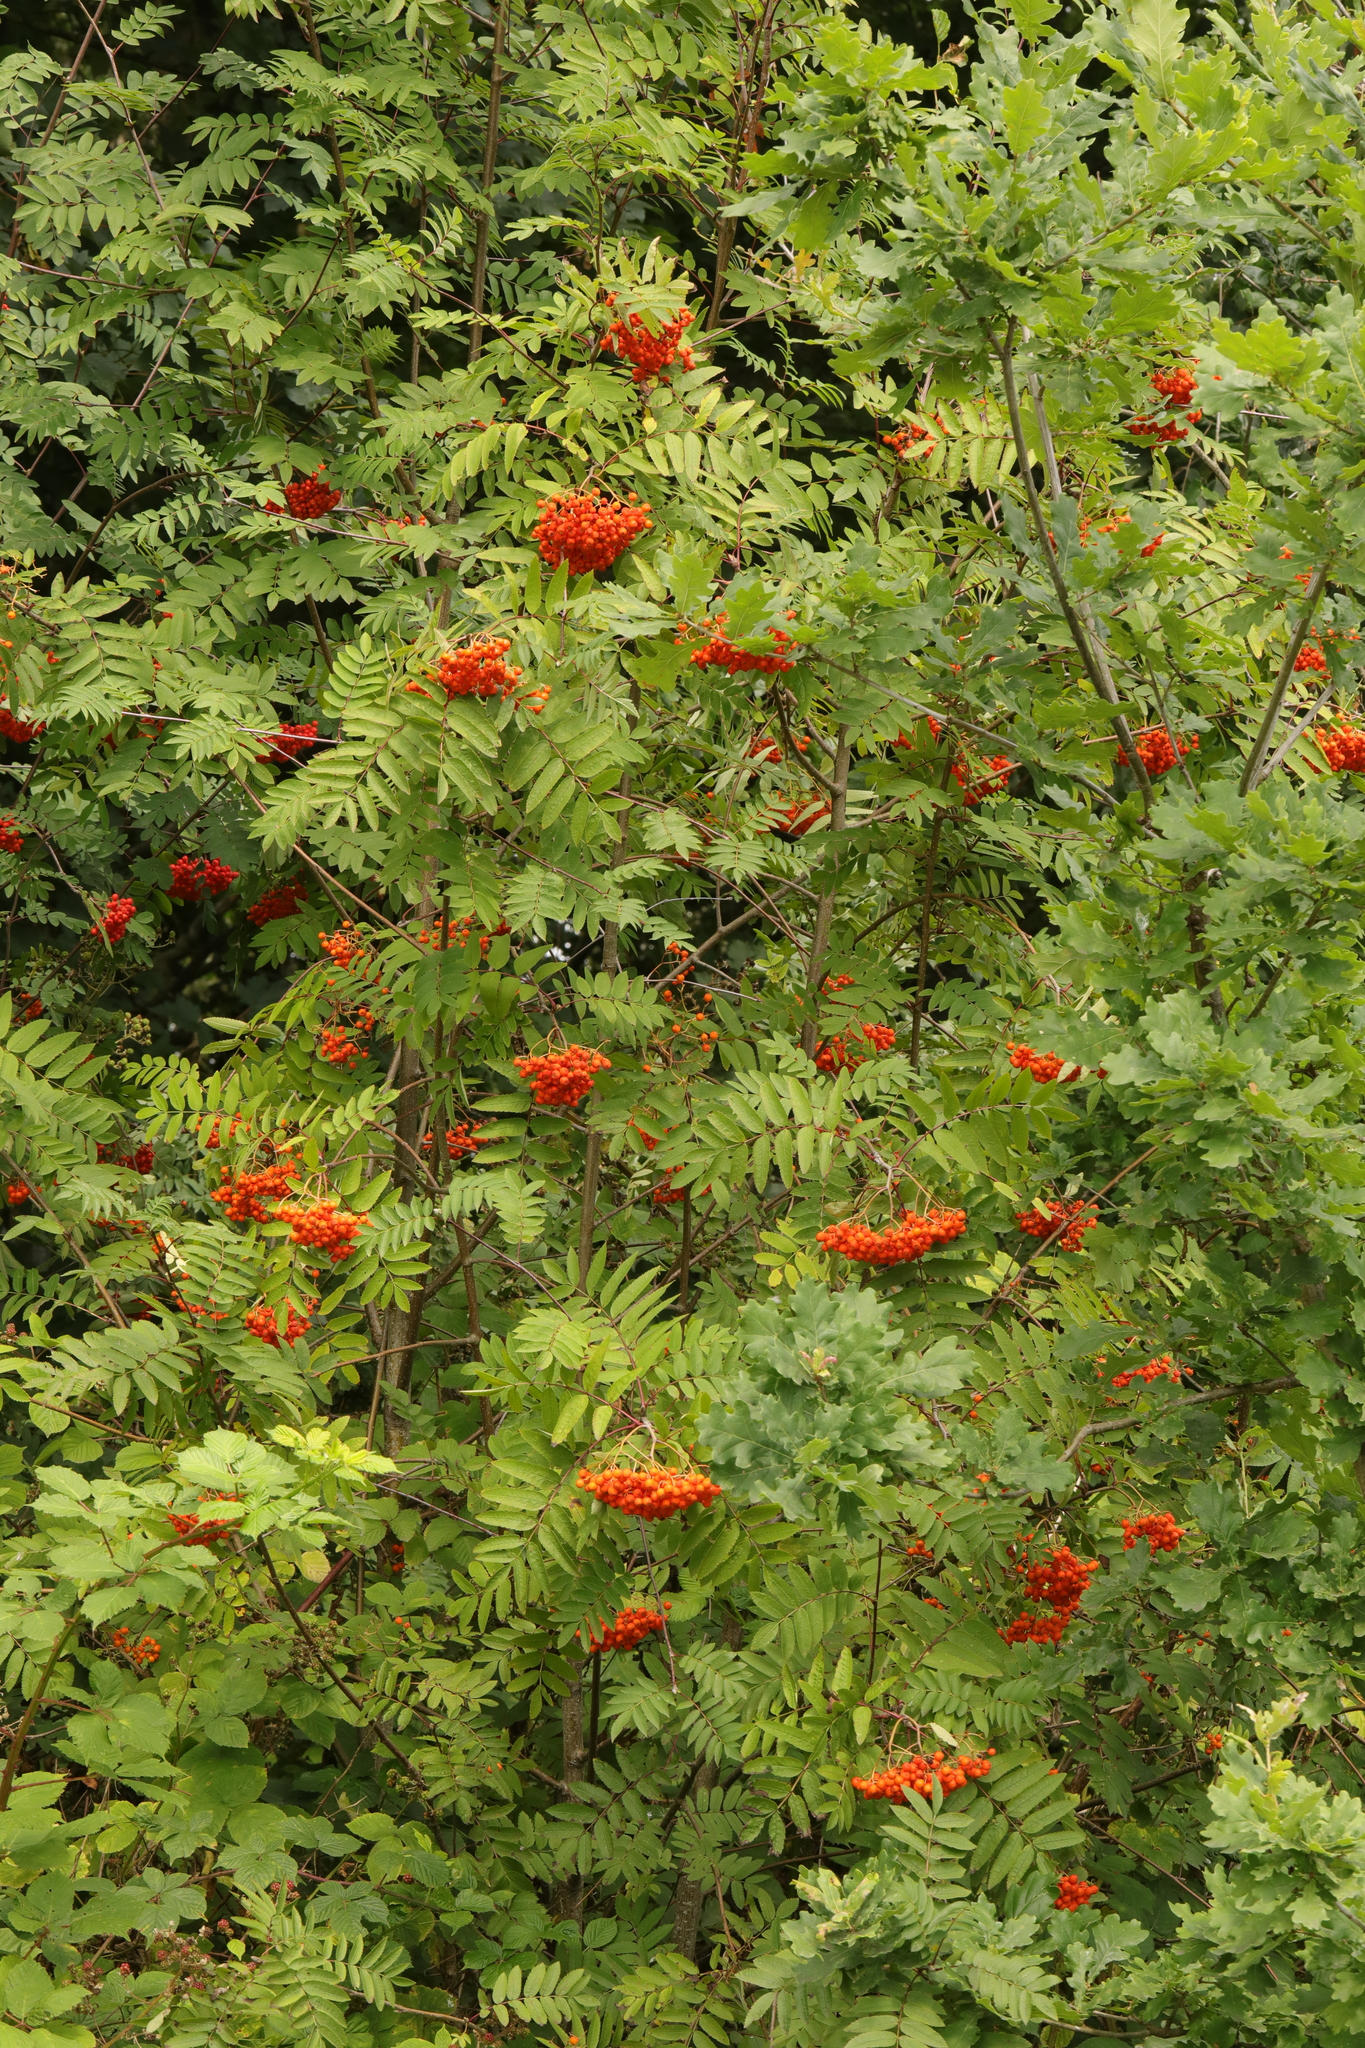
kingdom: Plantae
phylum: Tracheophyta
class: Magnoliopsida
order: Rosales
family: Rosaceae
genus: Sorbus
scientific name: Sorbus aucuparia
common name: Rowan
